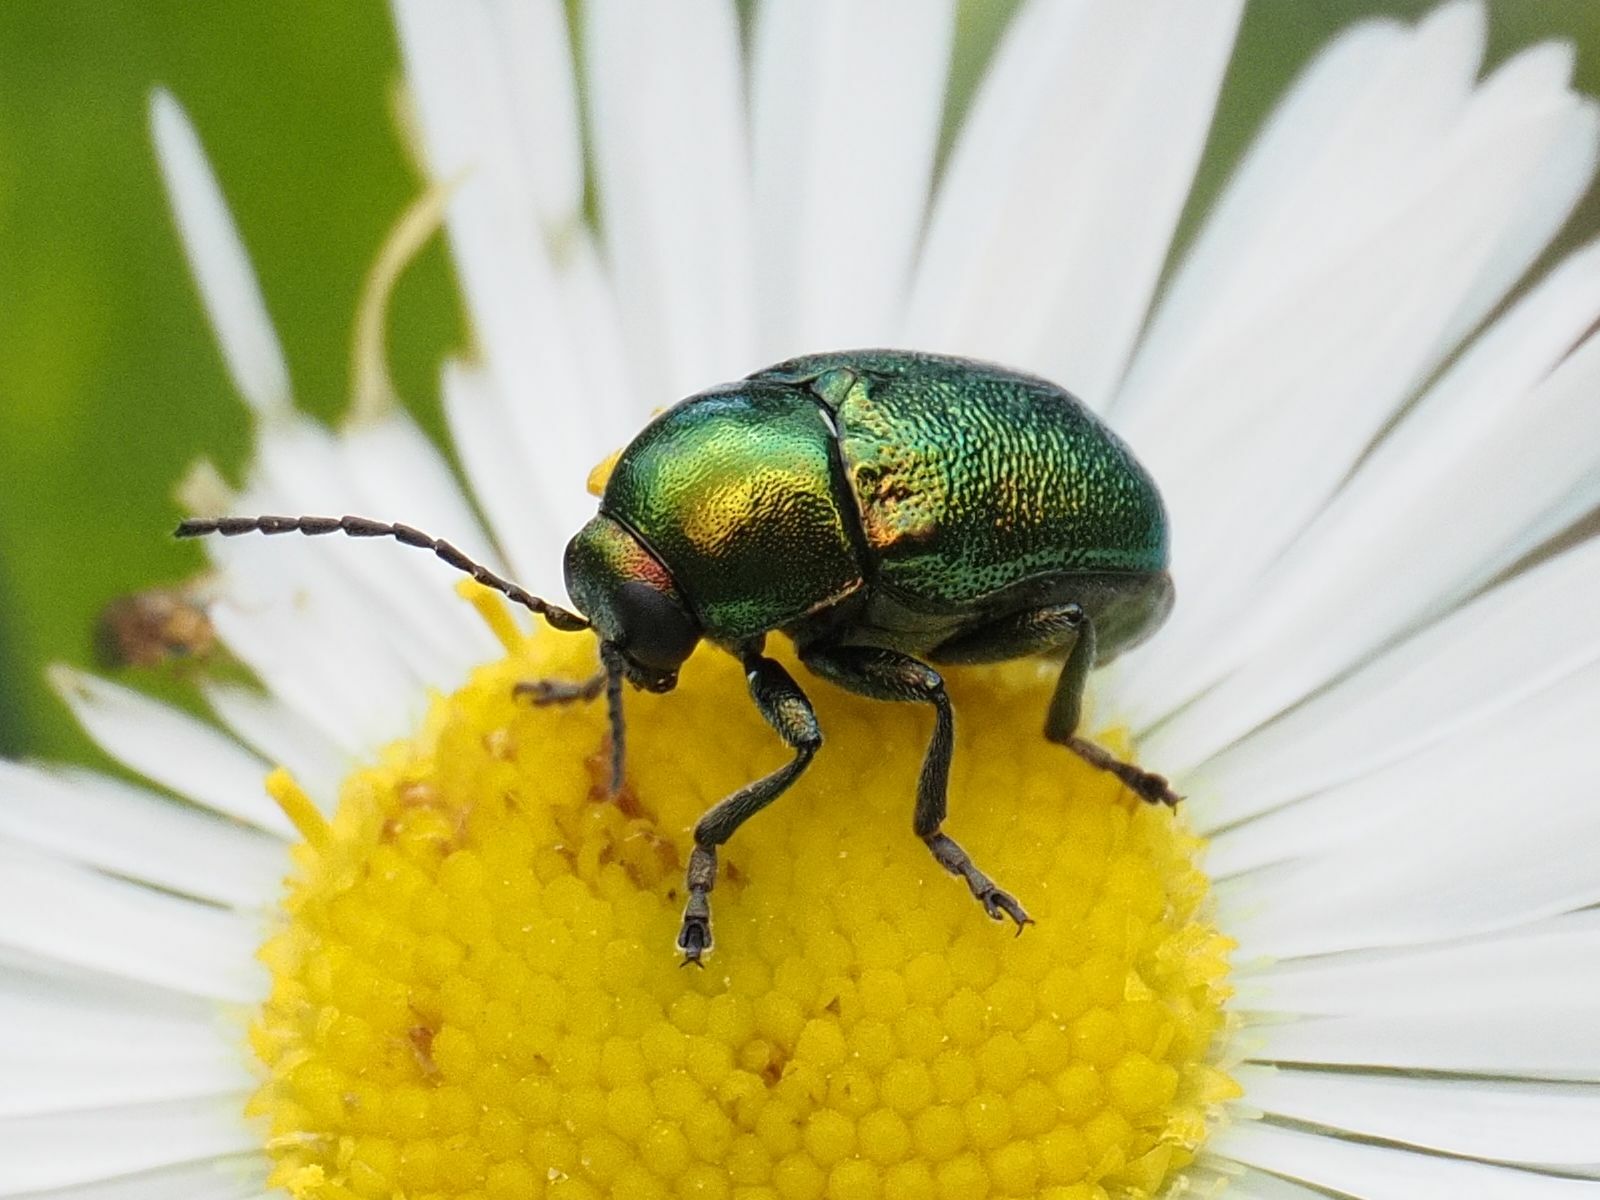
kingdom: Animalia
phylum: Arthropoda
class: Insecta
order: Coleoptera
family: Chrysomelidae
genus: Cryptocephalus
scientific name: Cryptocephalus sericeus
